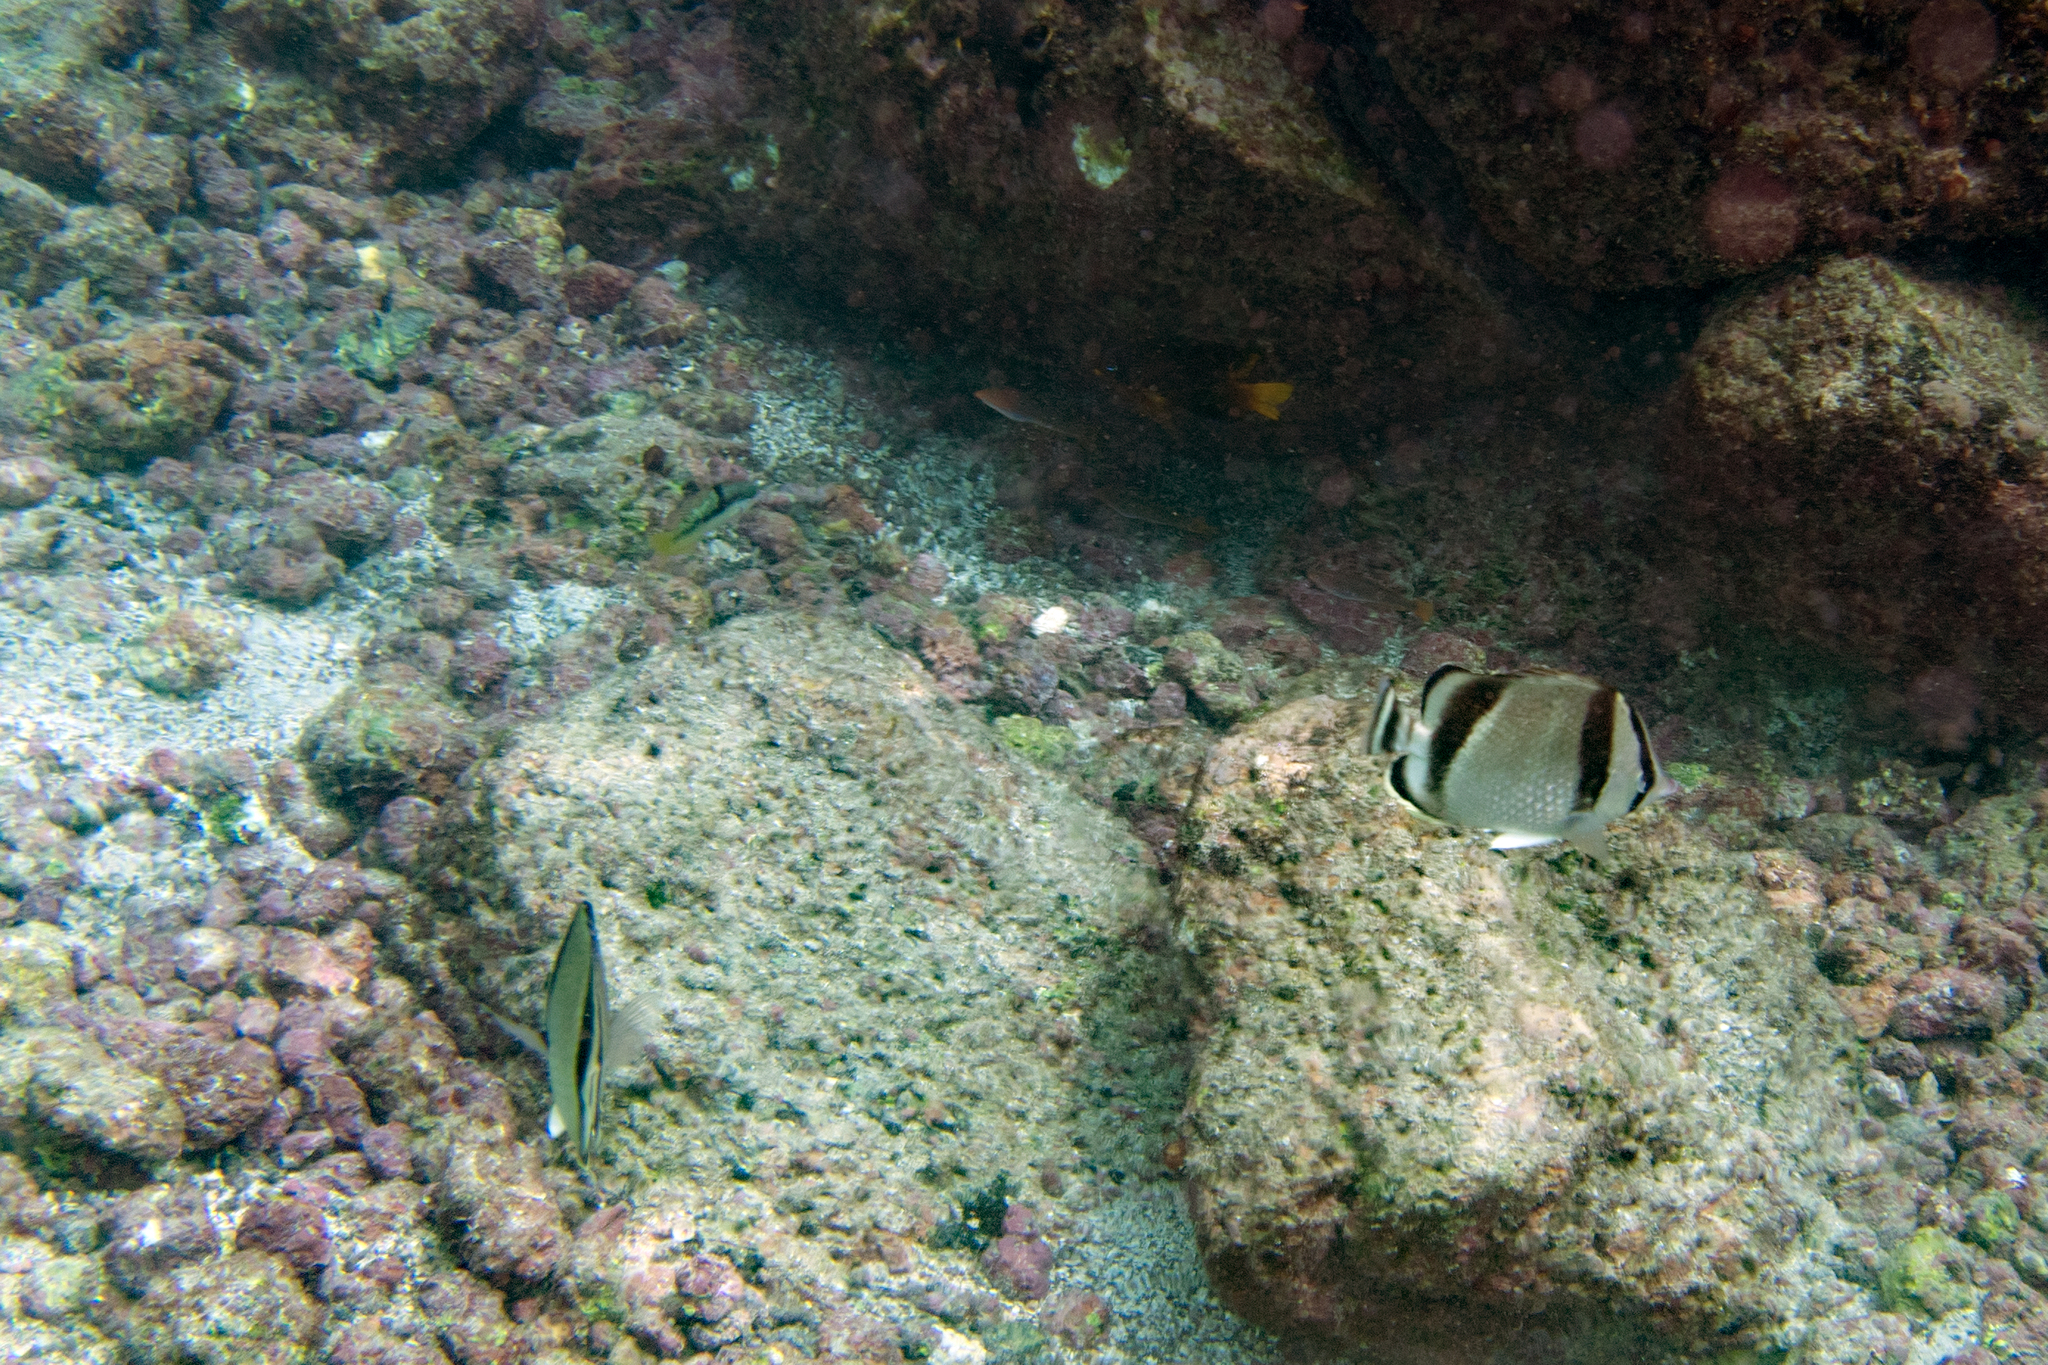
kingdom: Animalia
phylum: Chordata
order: Perciformes
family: Chaetodontidae
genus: Chaetodon
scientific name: Chaetodon humeralis
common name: Threebanded butterflyfish
